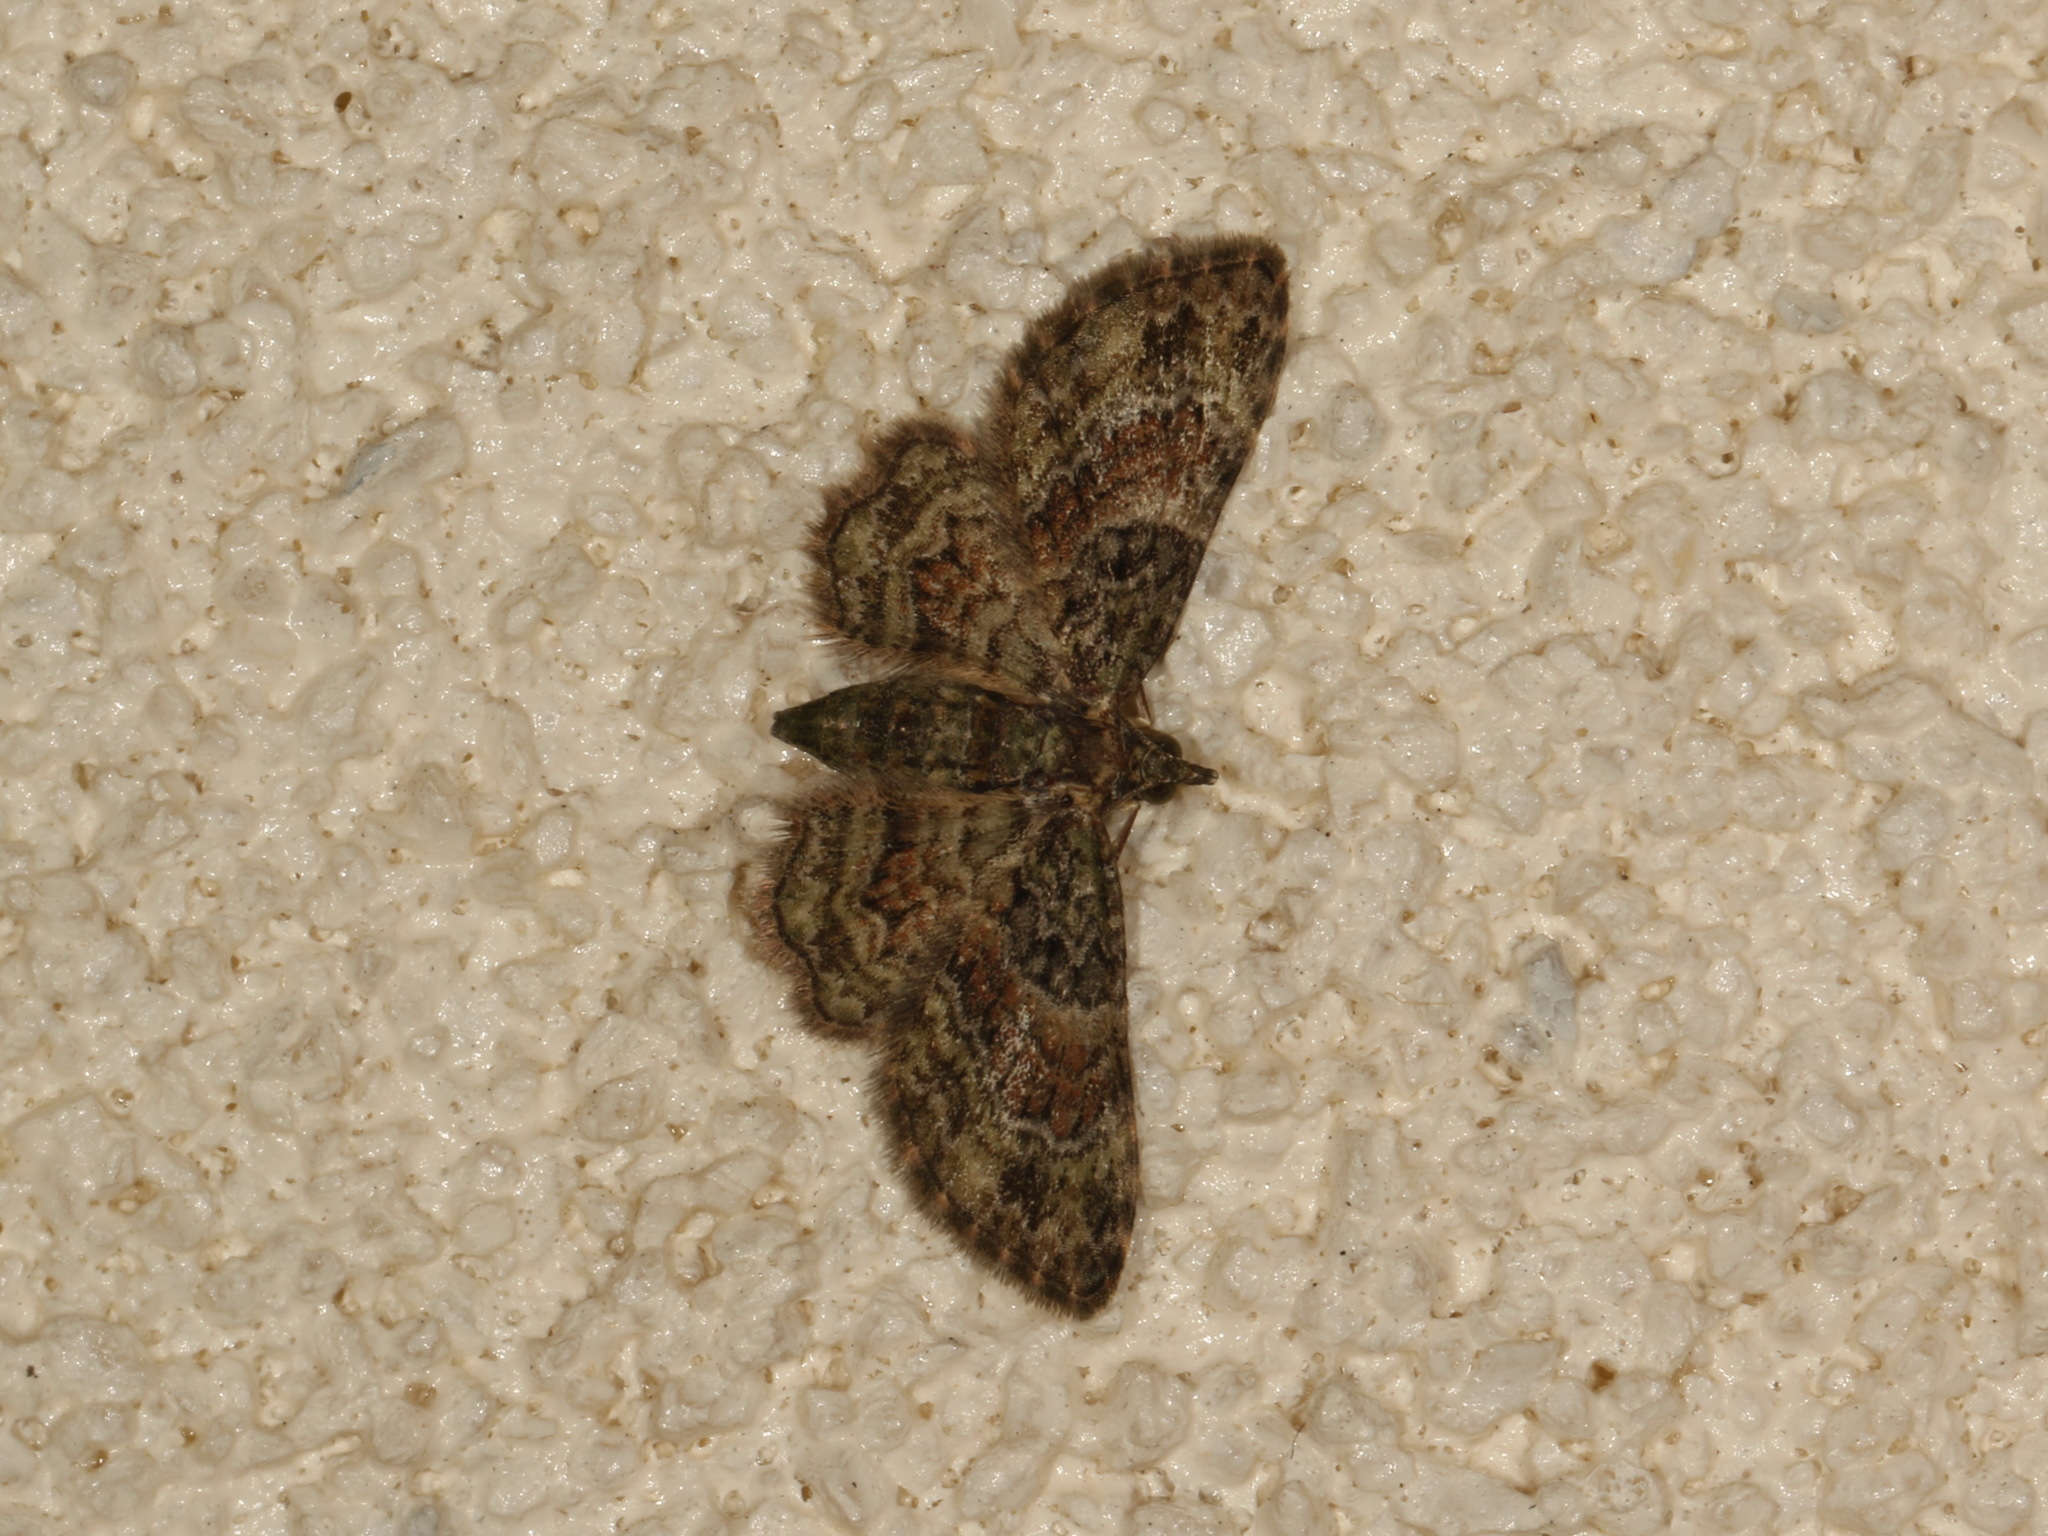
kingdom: Animalia
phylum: Arthropoda
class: Insecta
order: Lepidoptera
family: Geometridae
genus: Chloroclystis
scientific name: Chloroclystis catastreptes
